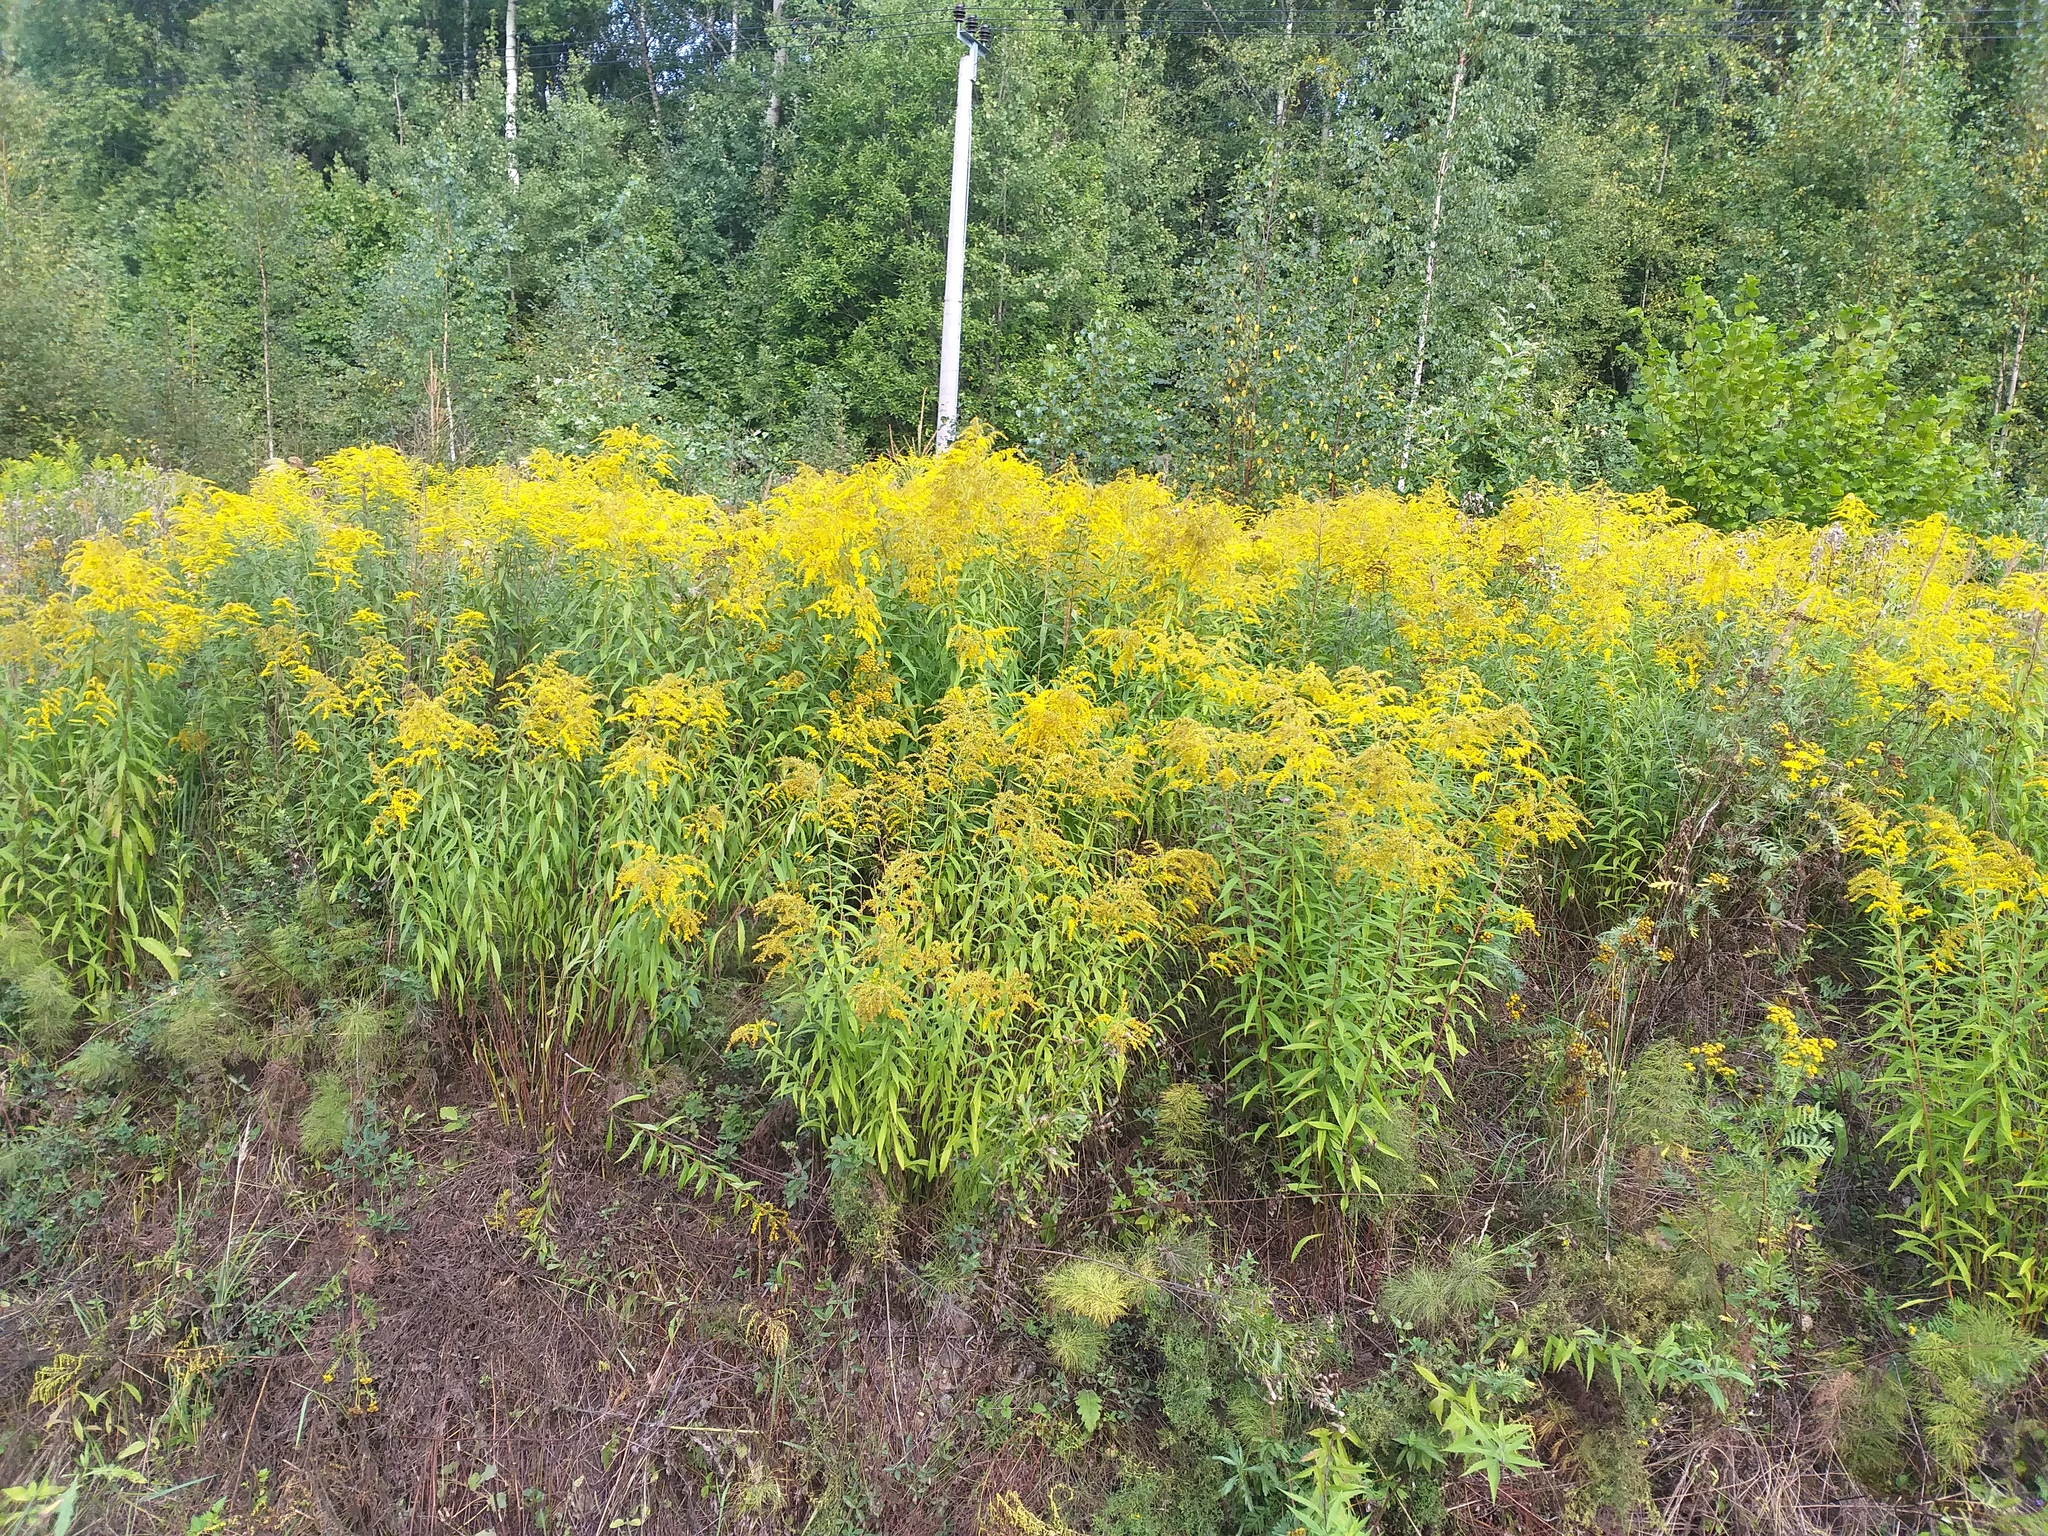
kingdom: Plantae
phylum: Tracheophyta
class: Magnoliopsida
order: Asterales
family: Asteraceae
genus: Solidago
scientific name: Solidago canadensis
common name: Canada goldenrod
